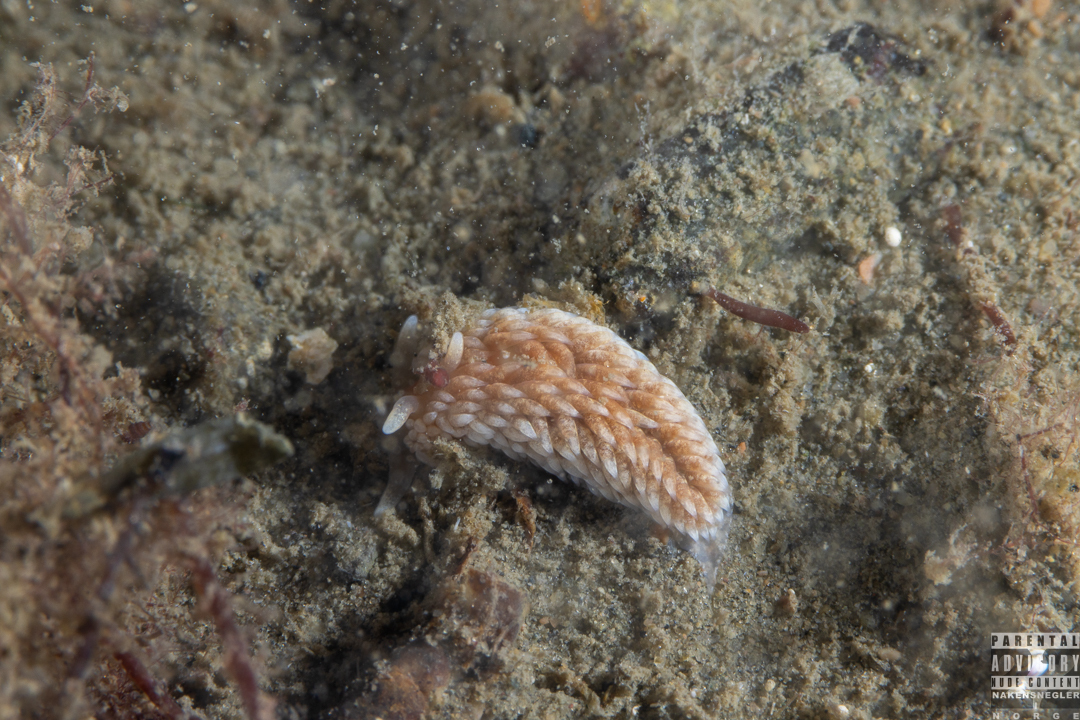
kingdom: Animalia
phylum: Mollusca
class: Gastropoda
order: Nudibranchia
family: Aeolidiidae
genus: Aeolidiella
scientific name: Aeolidiella glauca
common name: Orange-brown aeolid
